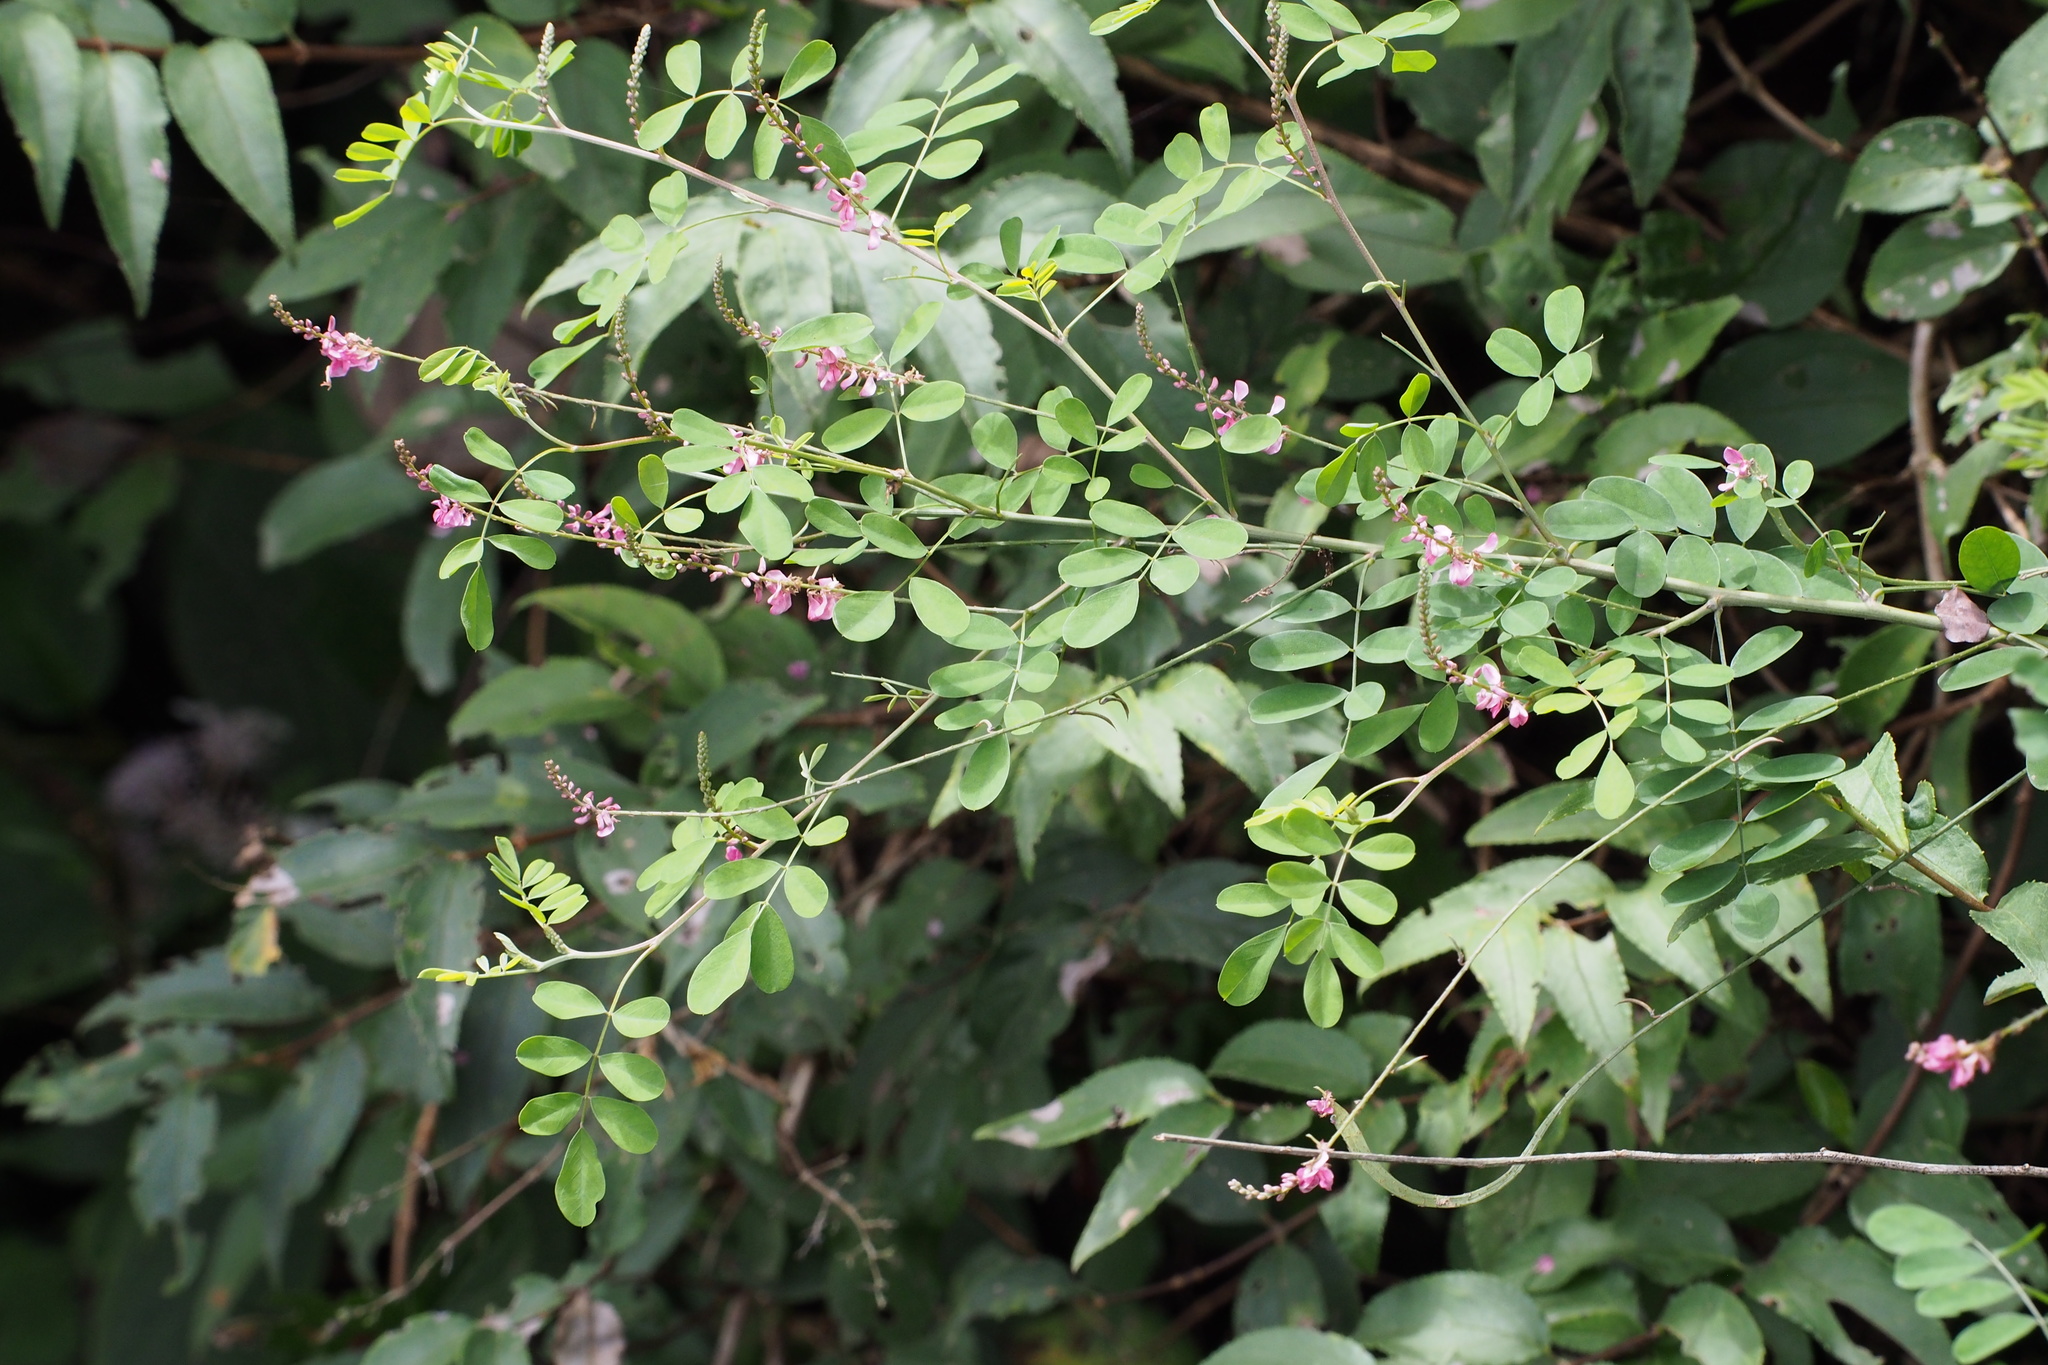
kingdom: Plantae
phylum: Tracheophyta
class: Magnoliopsida
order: Fabales
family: Fabaceae
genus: Indigofera
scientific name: Indigofera bungeana
